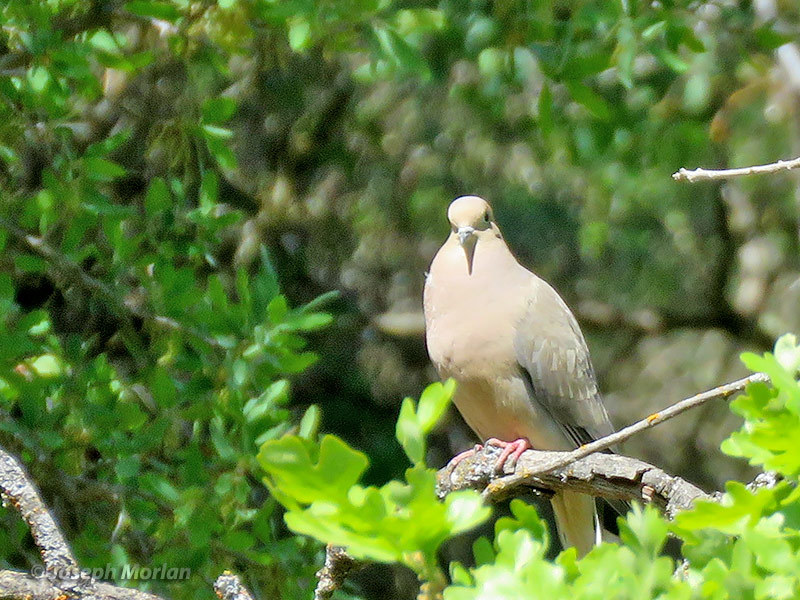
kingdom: Animalia
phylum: Chordata
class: Aves
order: Columbiformes
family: Columbidae
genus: Zenaida
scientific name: Zenaida macroura
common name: Mourning dove
